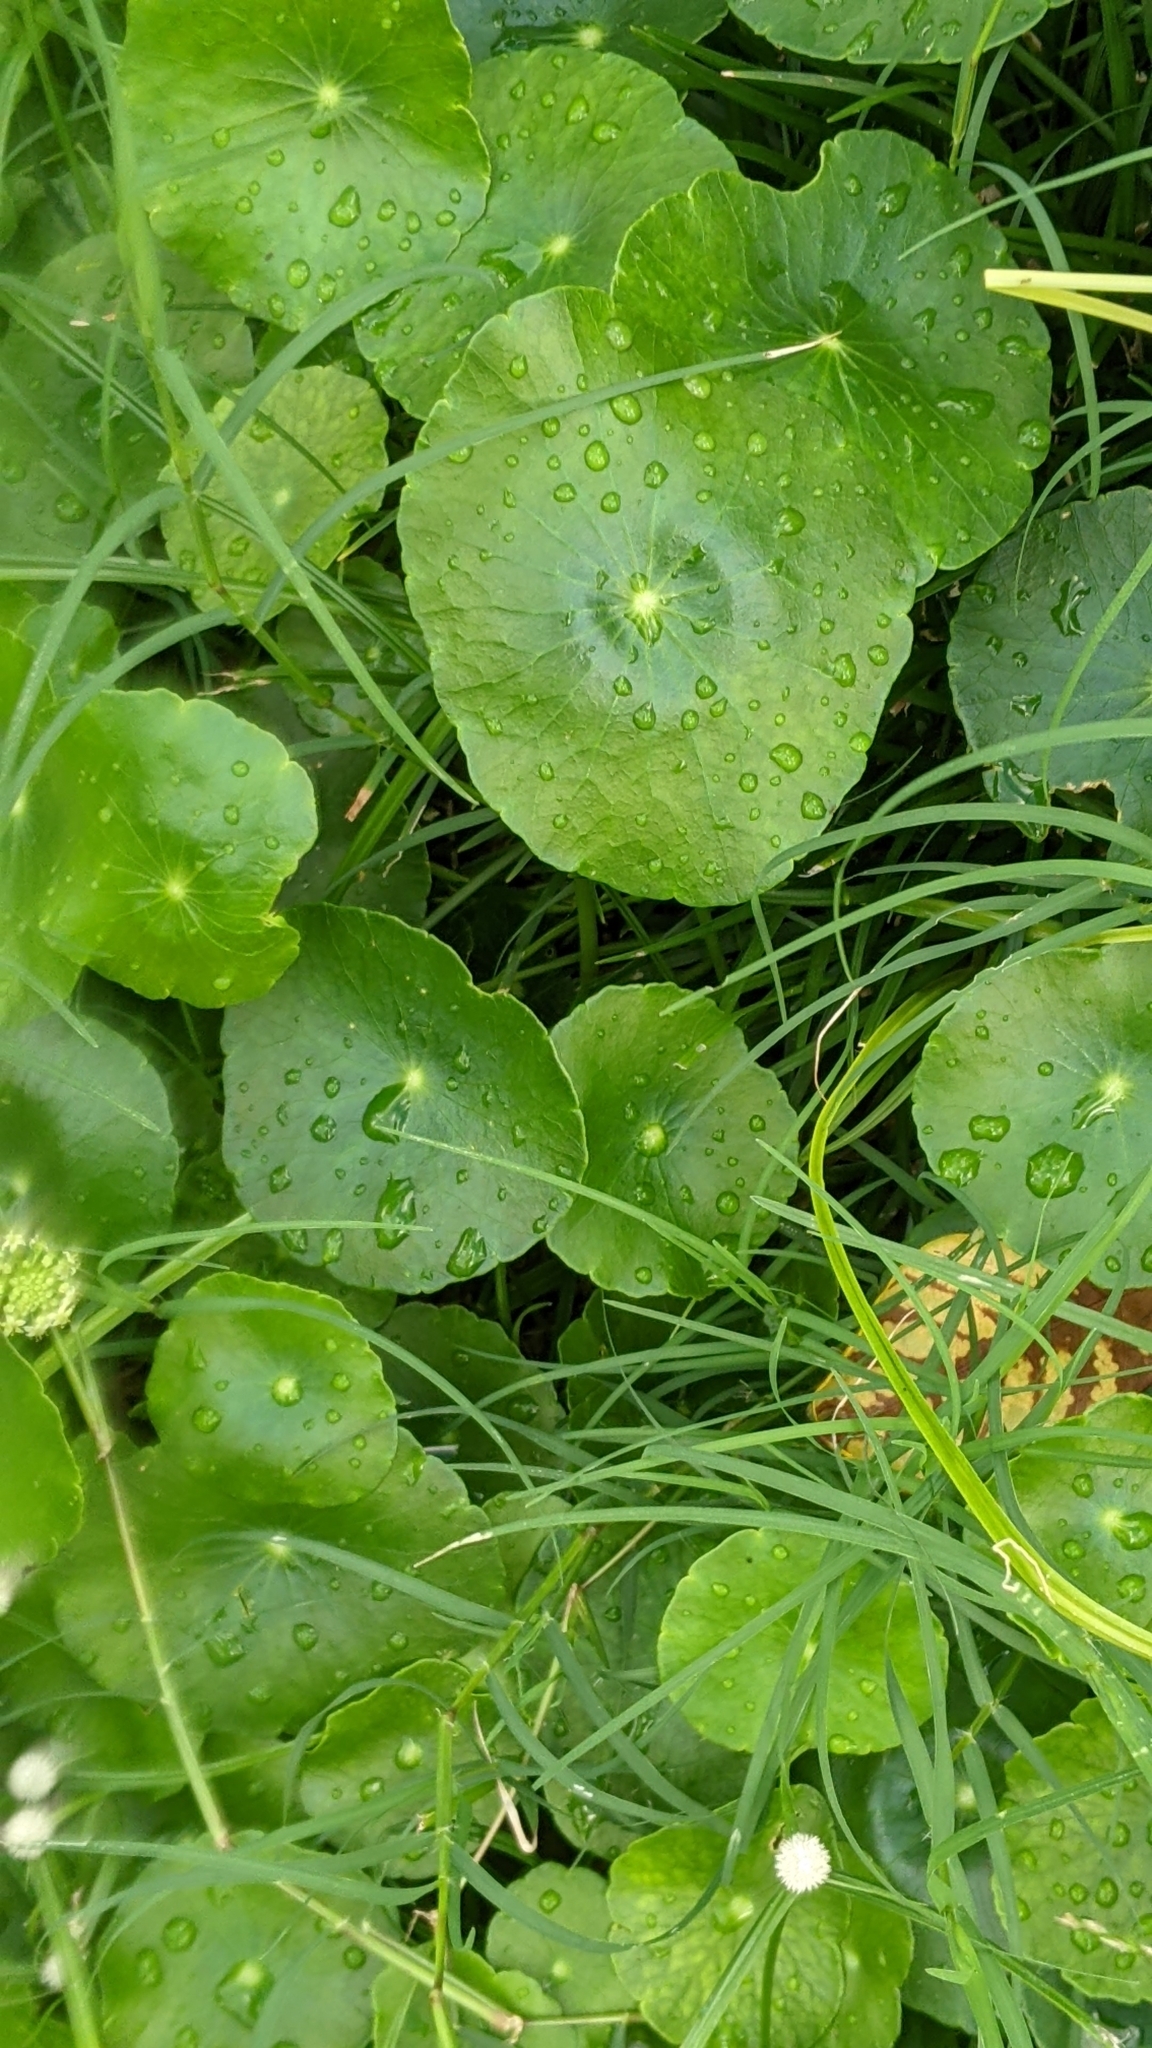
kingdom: Plantae
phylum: Tracheophyta
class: Magnoliopsida
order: Apiales
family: Araliaceae
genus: Hydrocotyle
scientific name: Hydrocotyle verticillata
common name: Whorled marshpennywort
